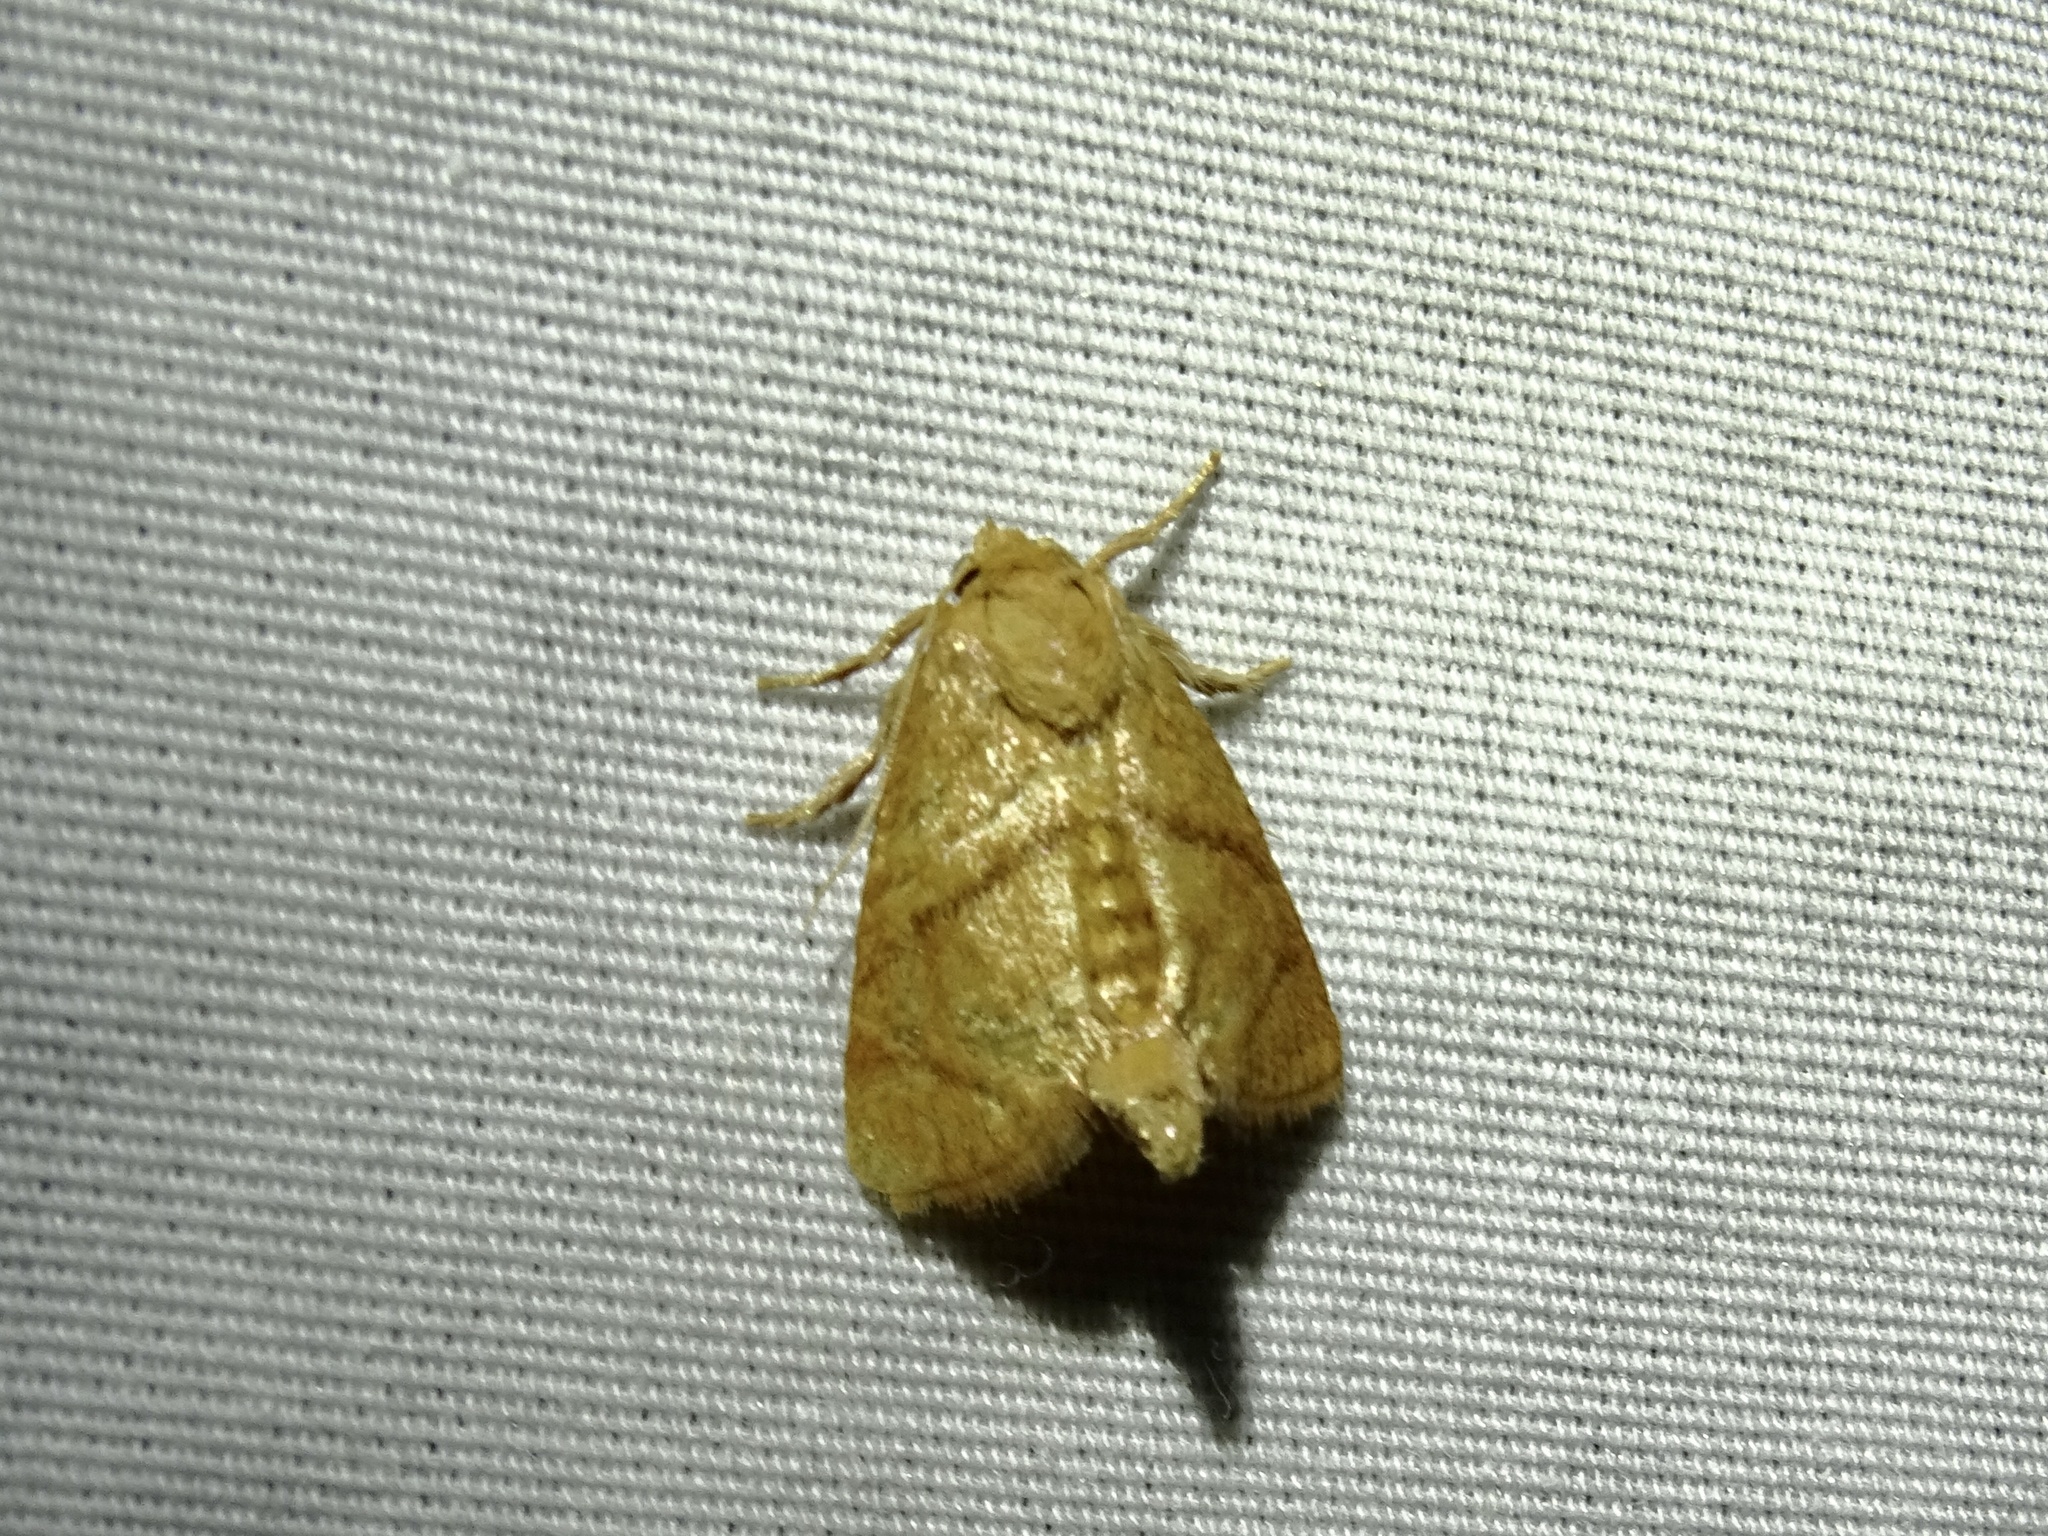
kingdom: Animalia
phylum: Arthropoda
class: Insecta
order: Lepidoptera
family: Limacodidae
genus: Apoda
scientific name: Apoda y-inversa
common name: Yellow-collared slug moth
